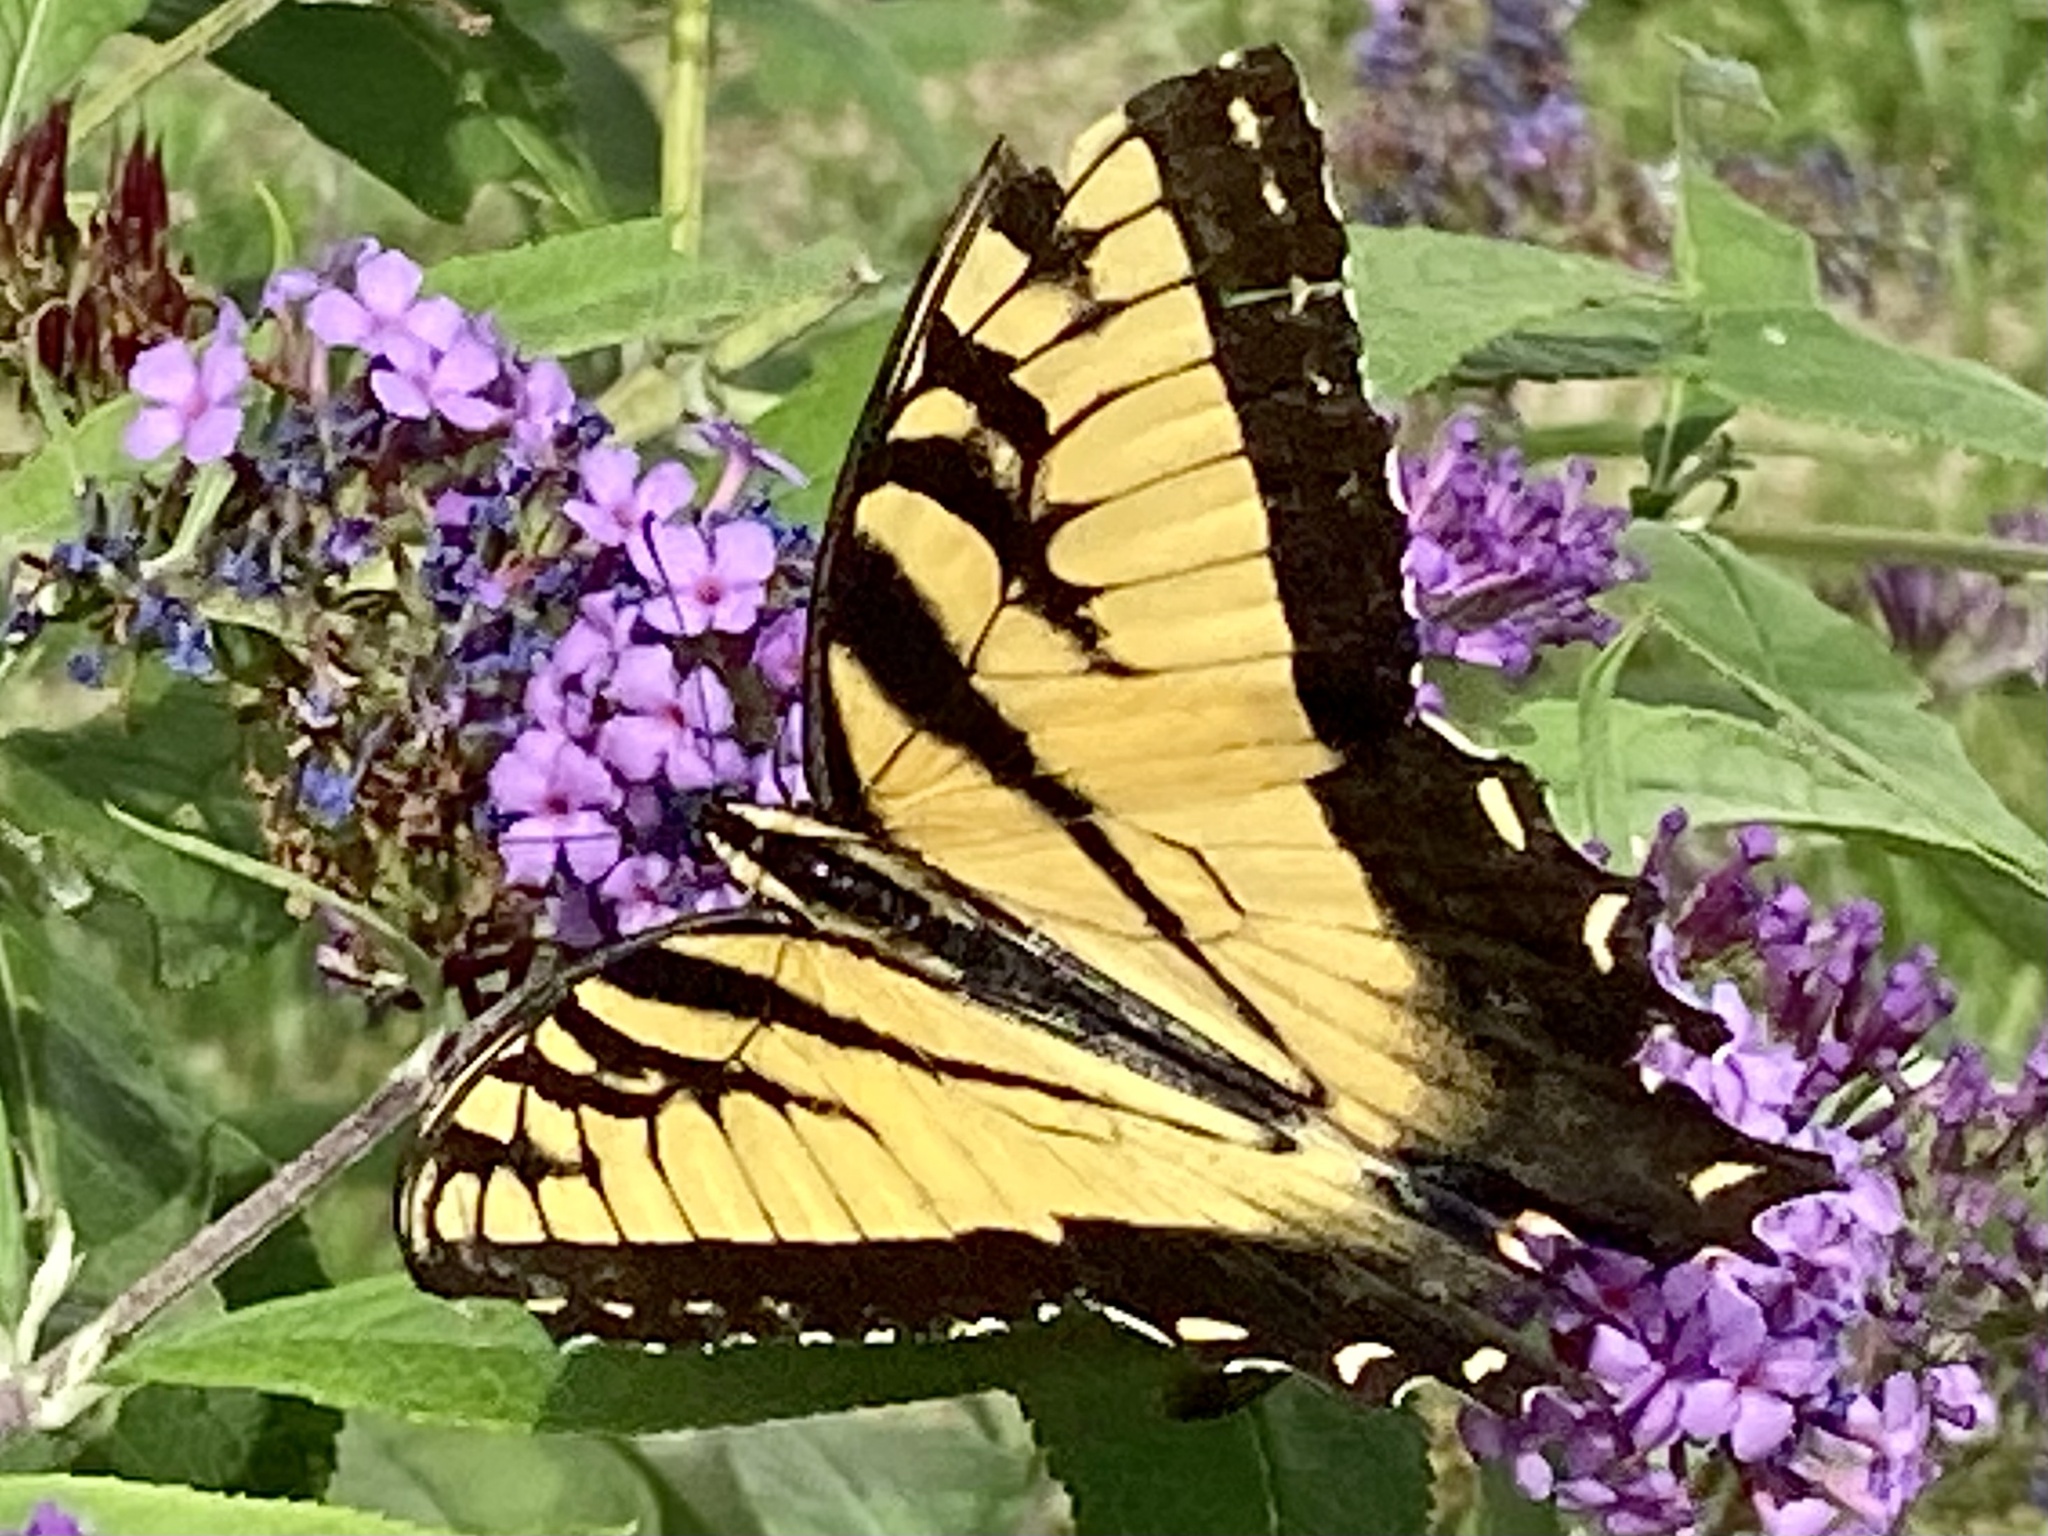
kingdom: Animalia
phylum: Arthropoda
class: Insecta
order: Lepidoptera
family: Papilionidae
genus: Papilio
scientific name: Papilio glaucus
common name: Tiger swallowtail
